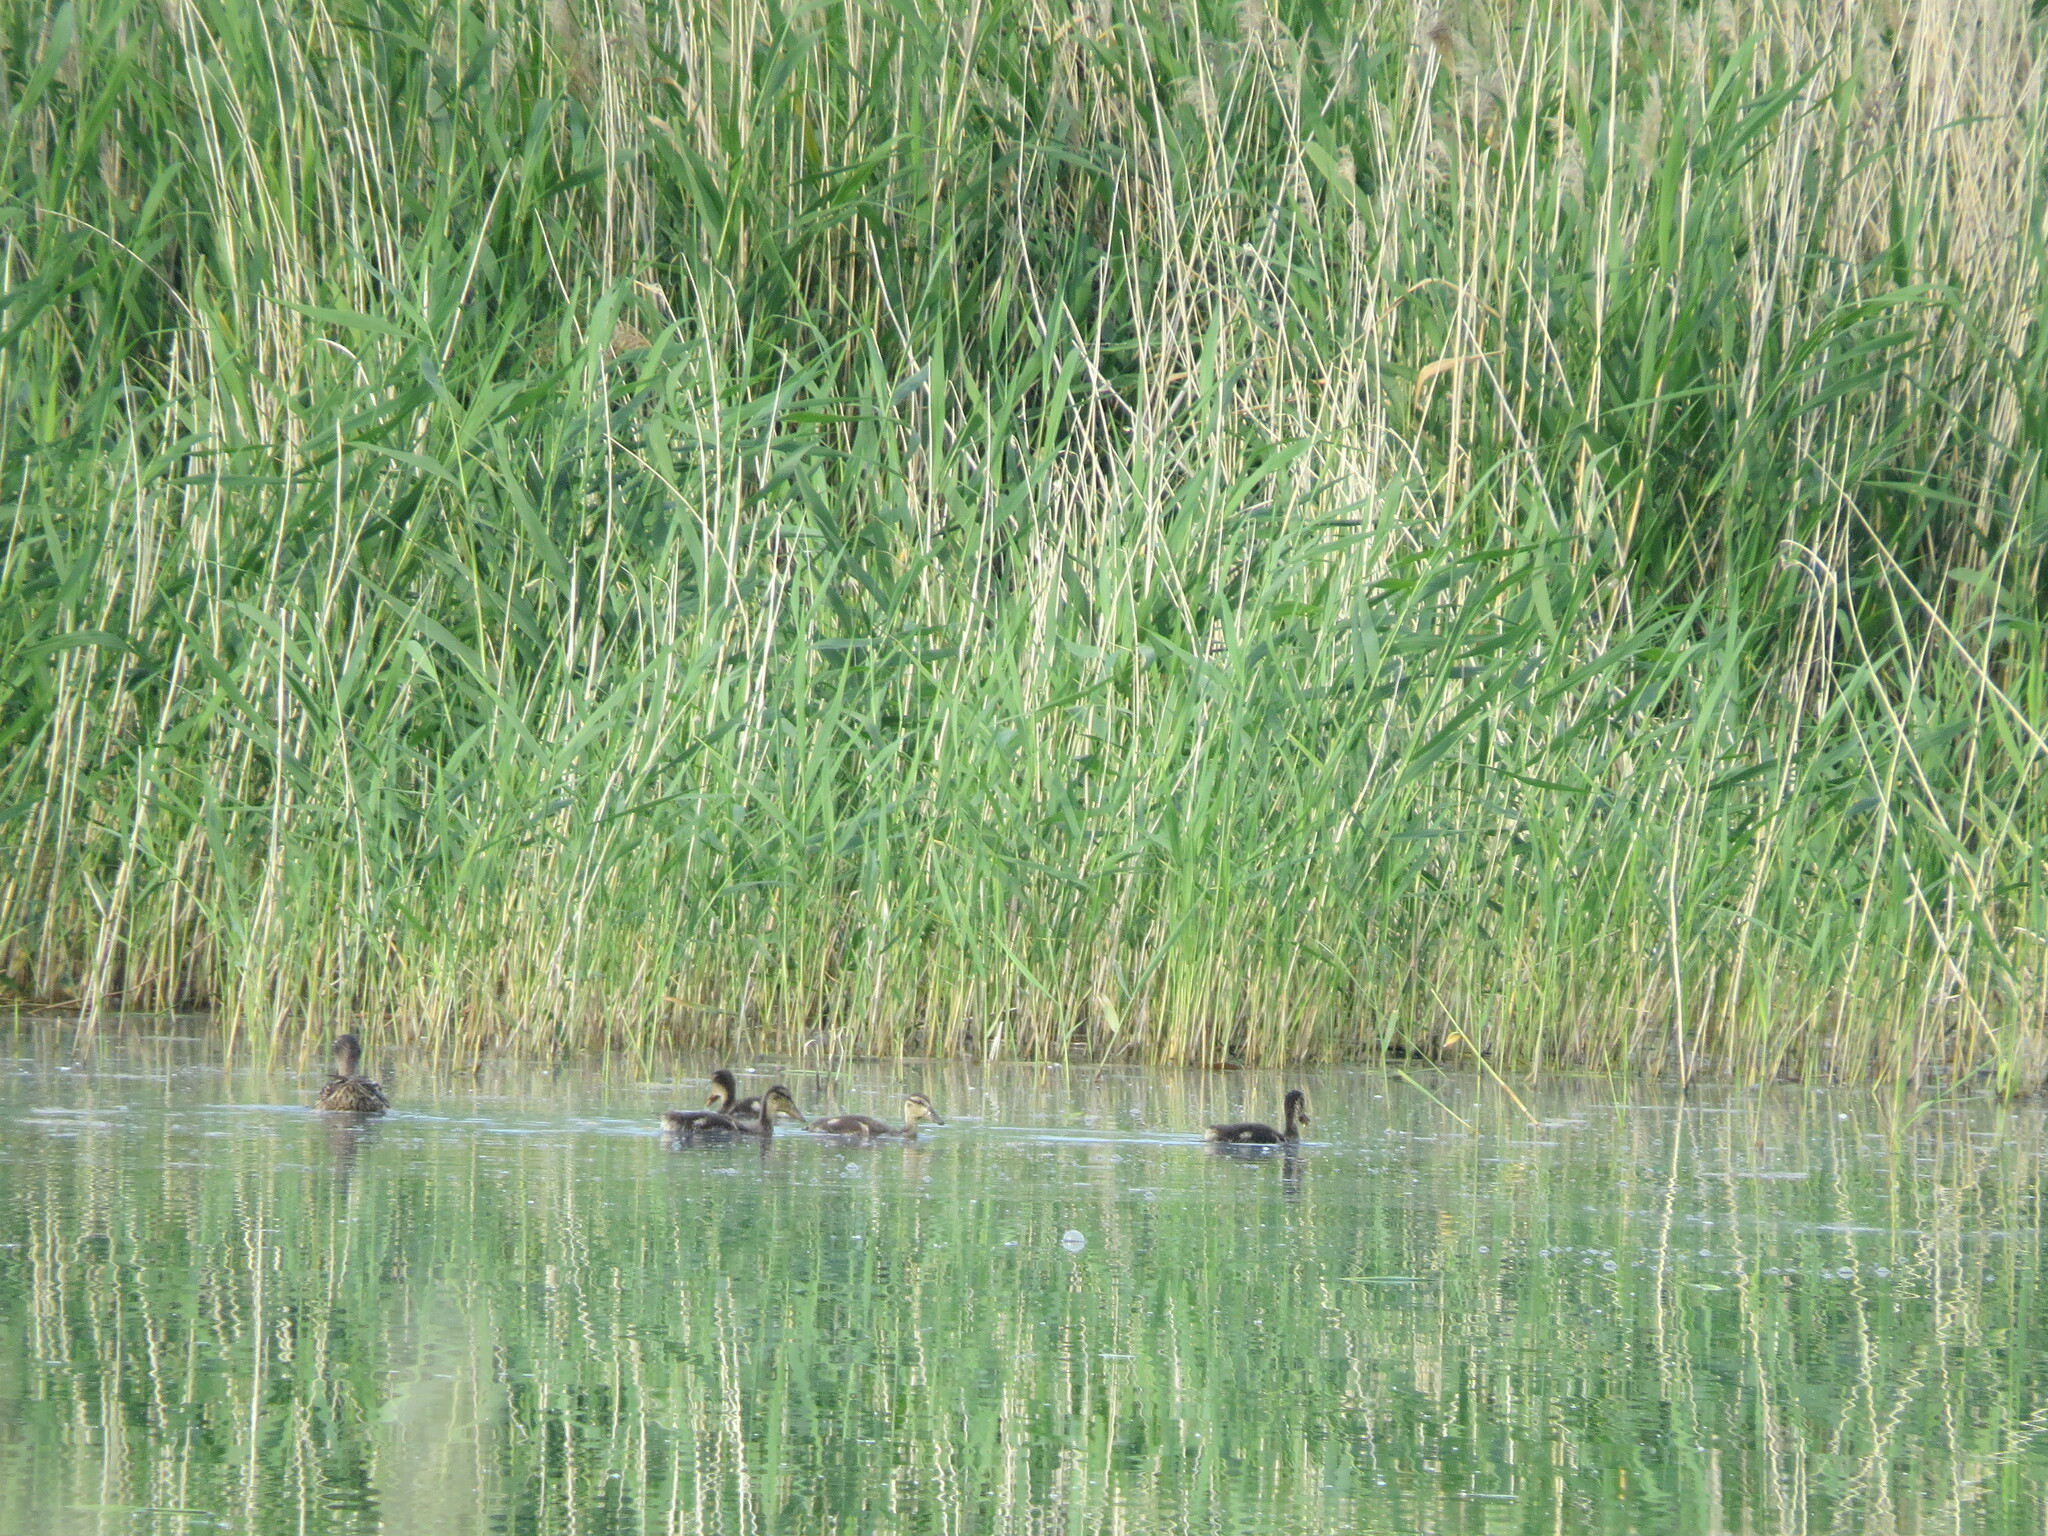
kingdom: Animalia
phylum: Chordata
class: Aves
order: Anseriformes
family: Anatidae
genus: Anas
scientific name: Anas platyrhynchos
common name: Mallard
